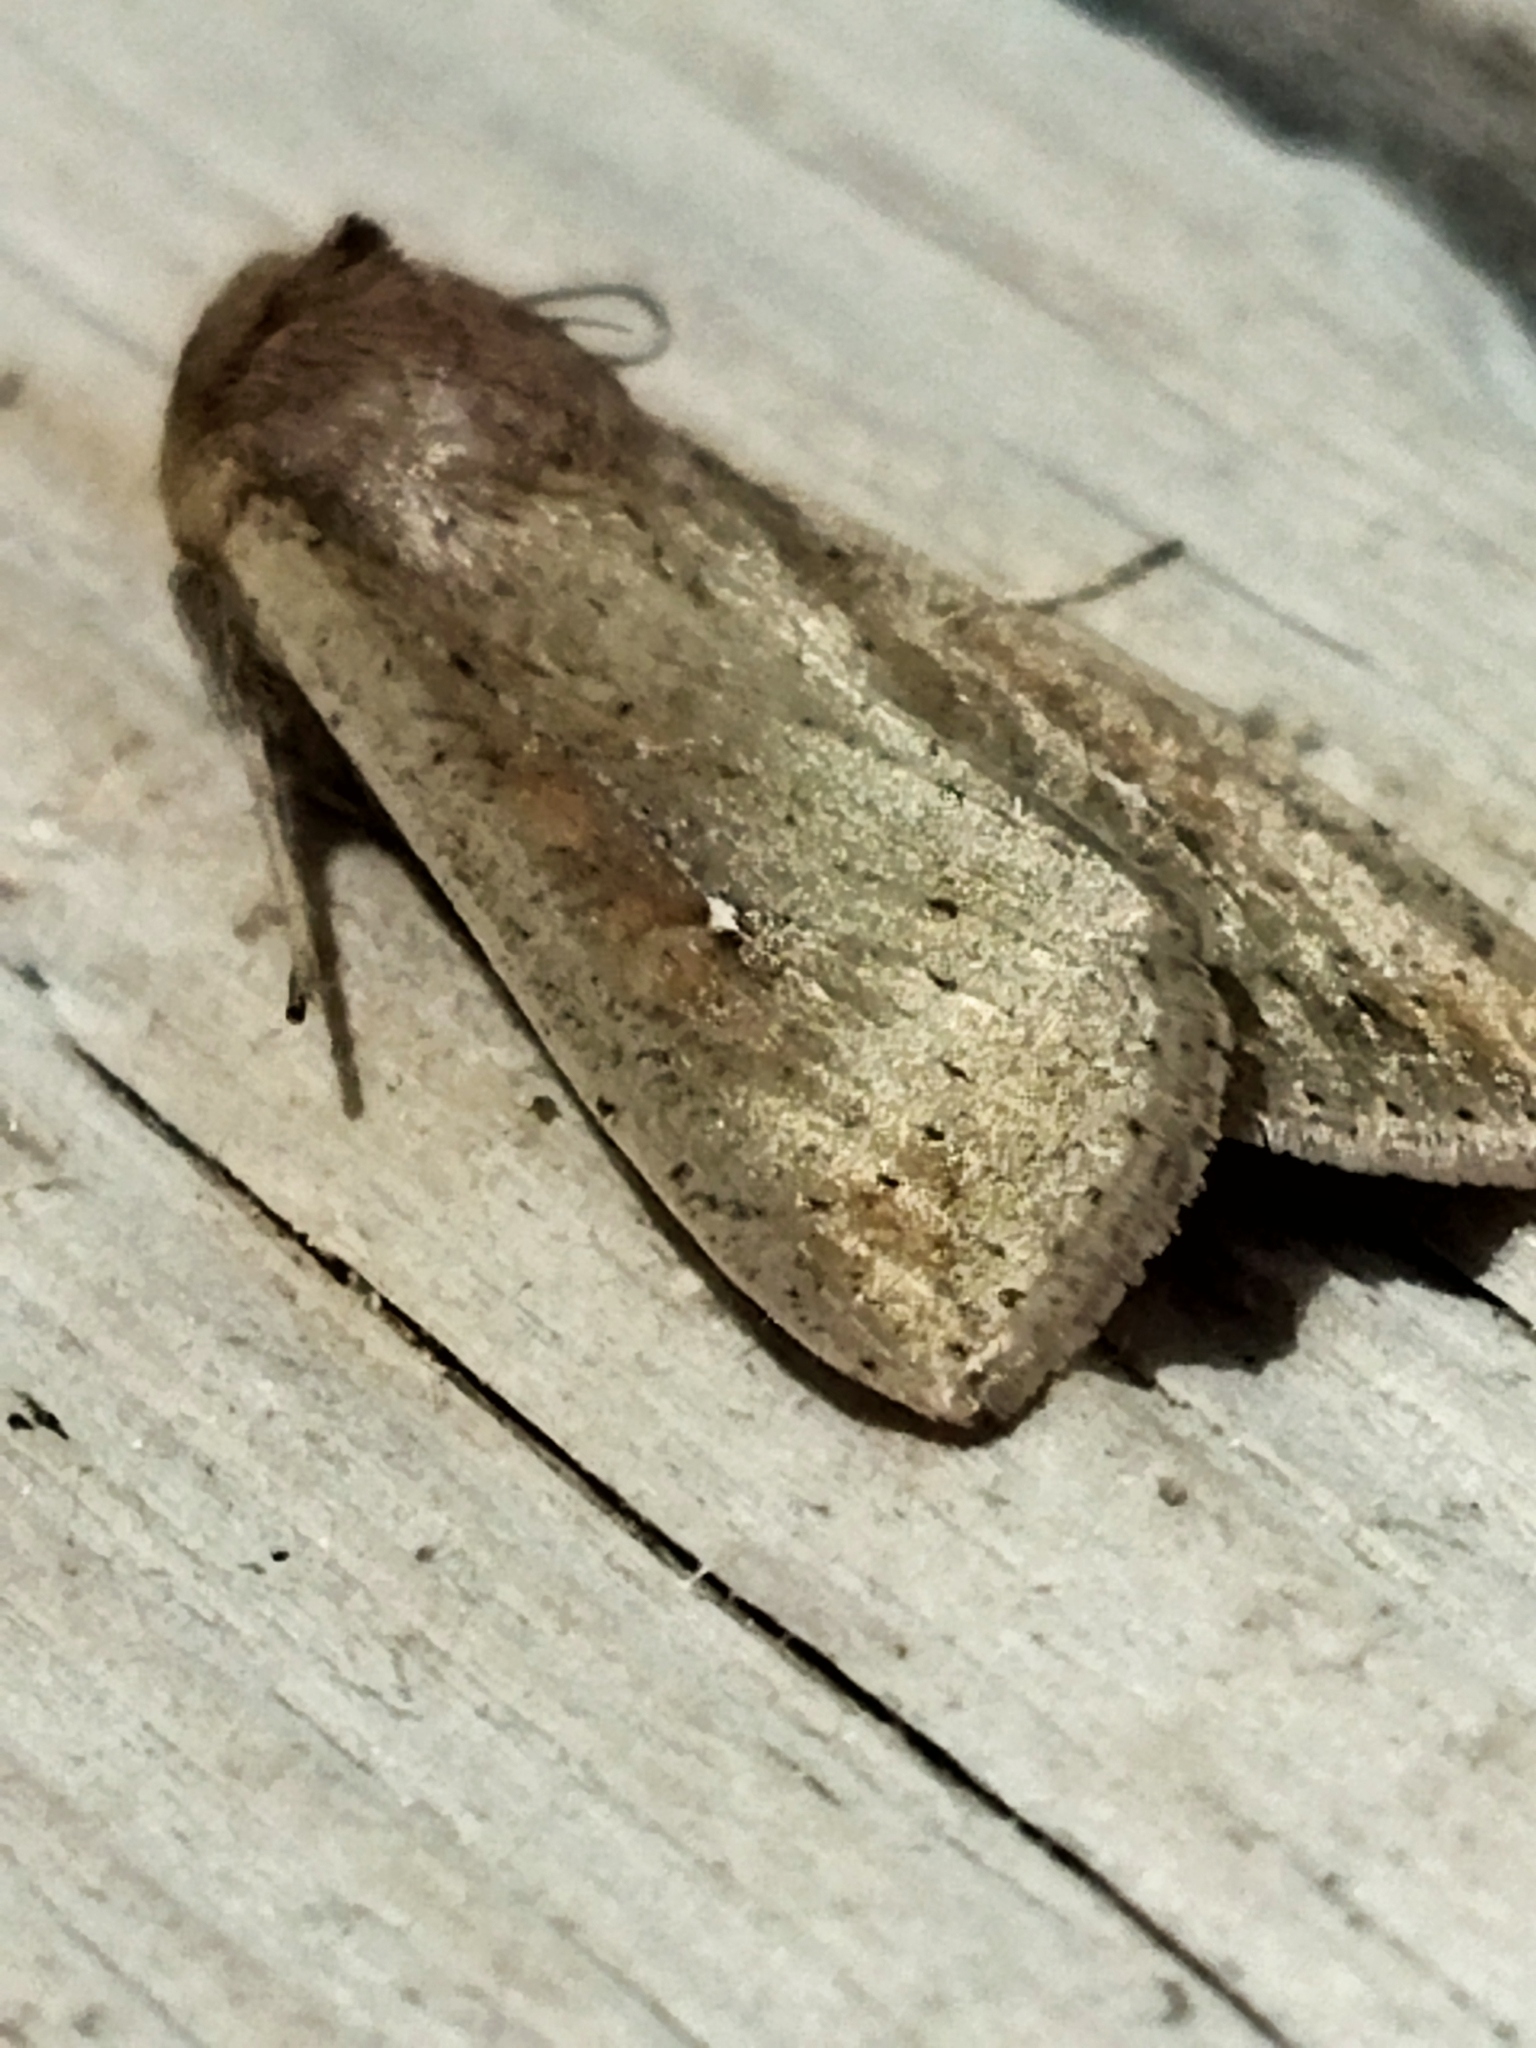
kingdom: Animalia
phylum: Arthropoda
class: Insecta
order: Lepidoptera
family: Noctuidae
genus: Mythimna
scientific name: Mythimna unipuncta
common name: White-speck
